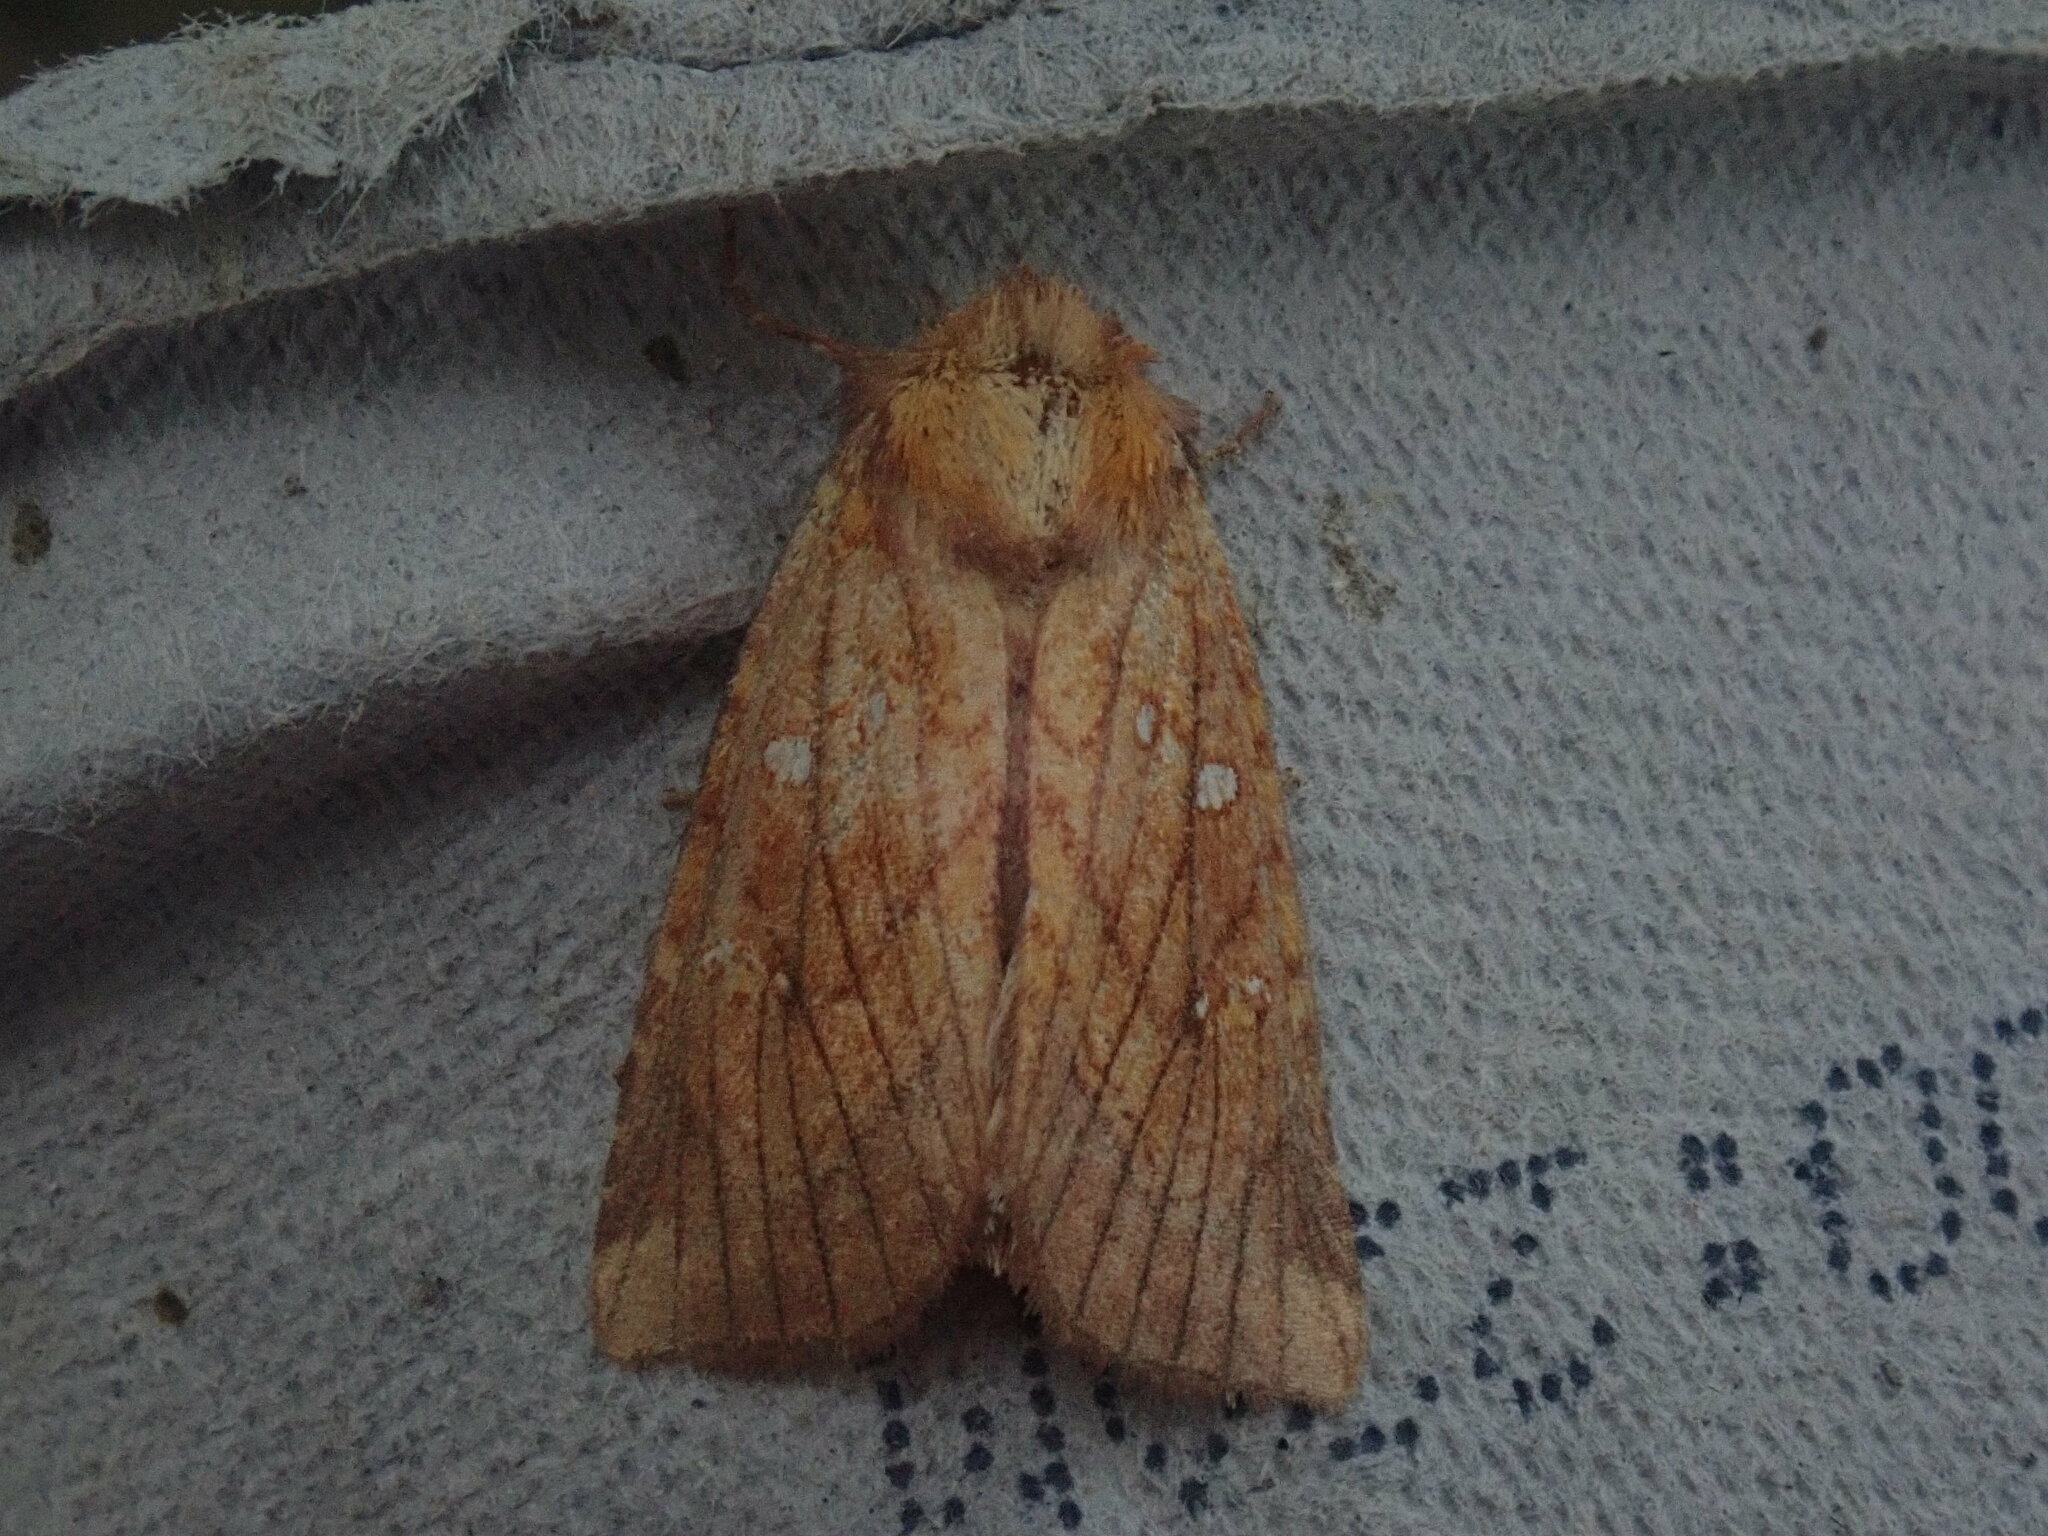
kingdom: Animalia
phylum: Arthropoda
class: Insecta
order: Lepidoptera
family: Noctuidae
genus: Papaipema
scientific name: Papaipema inquaesita
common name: Sensitive fern borer moth
